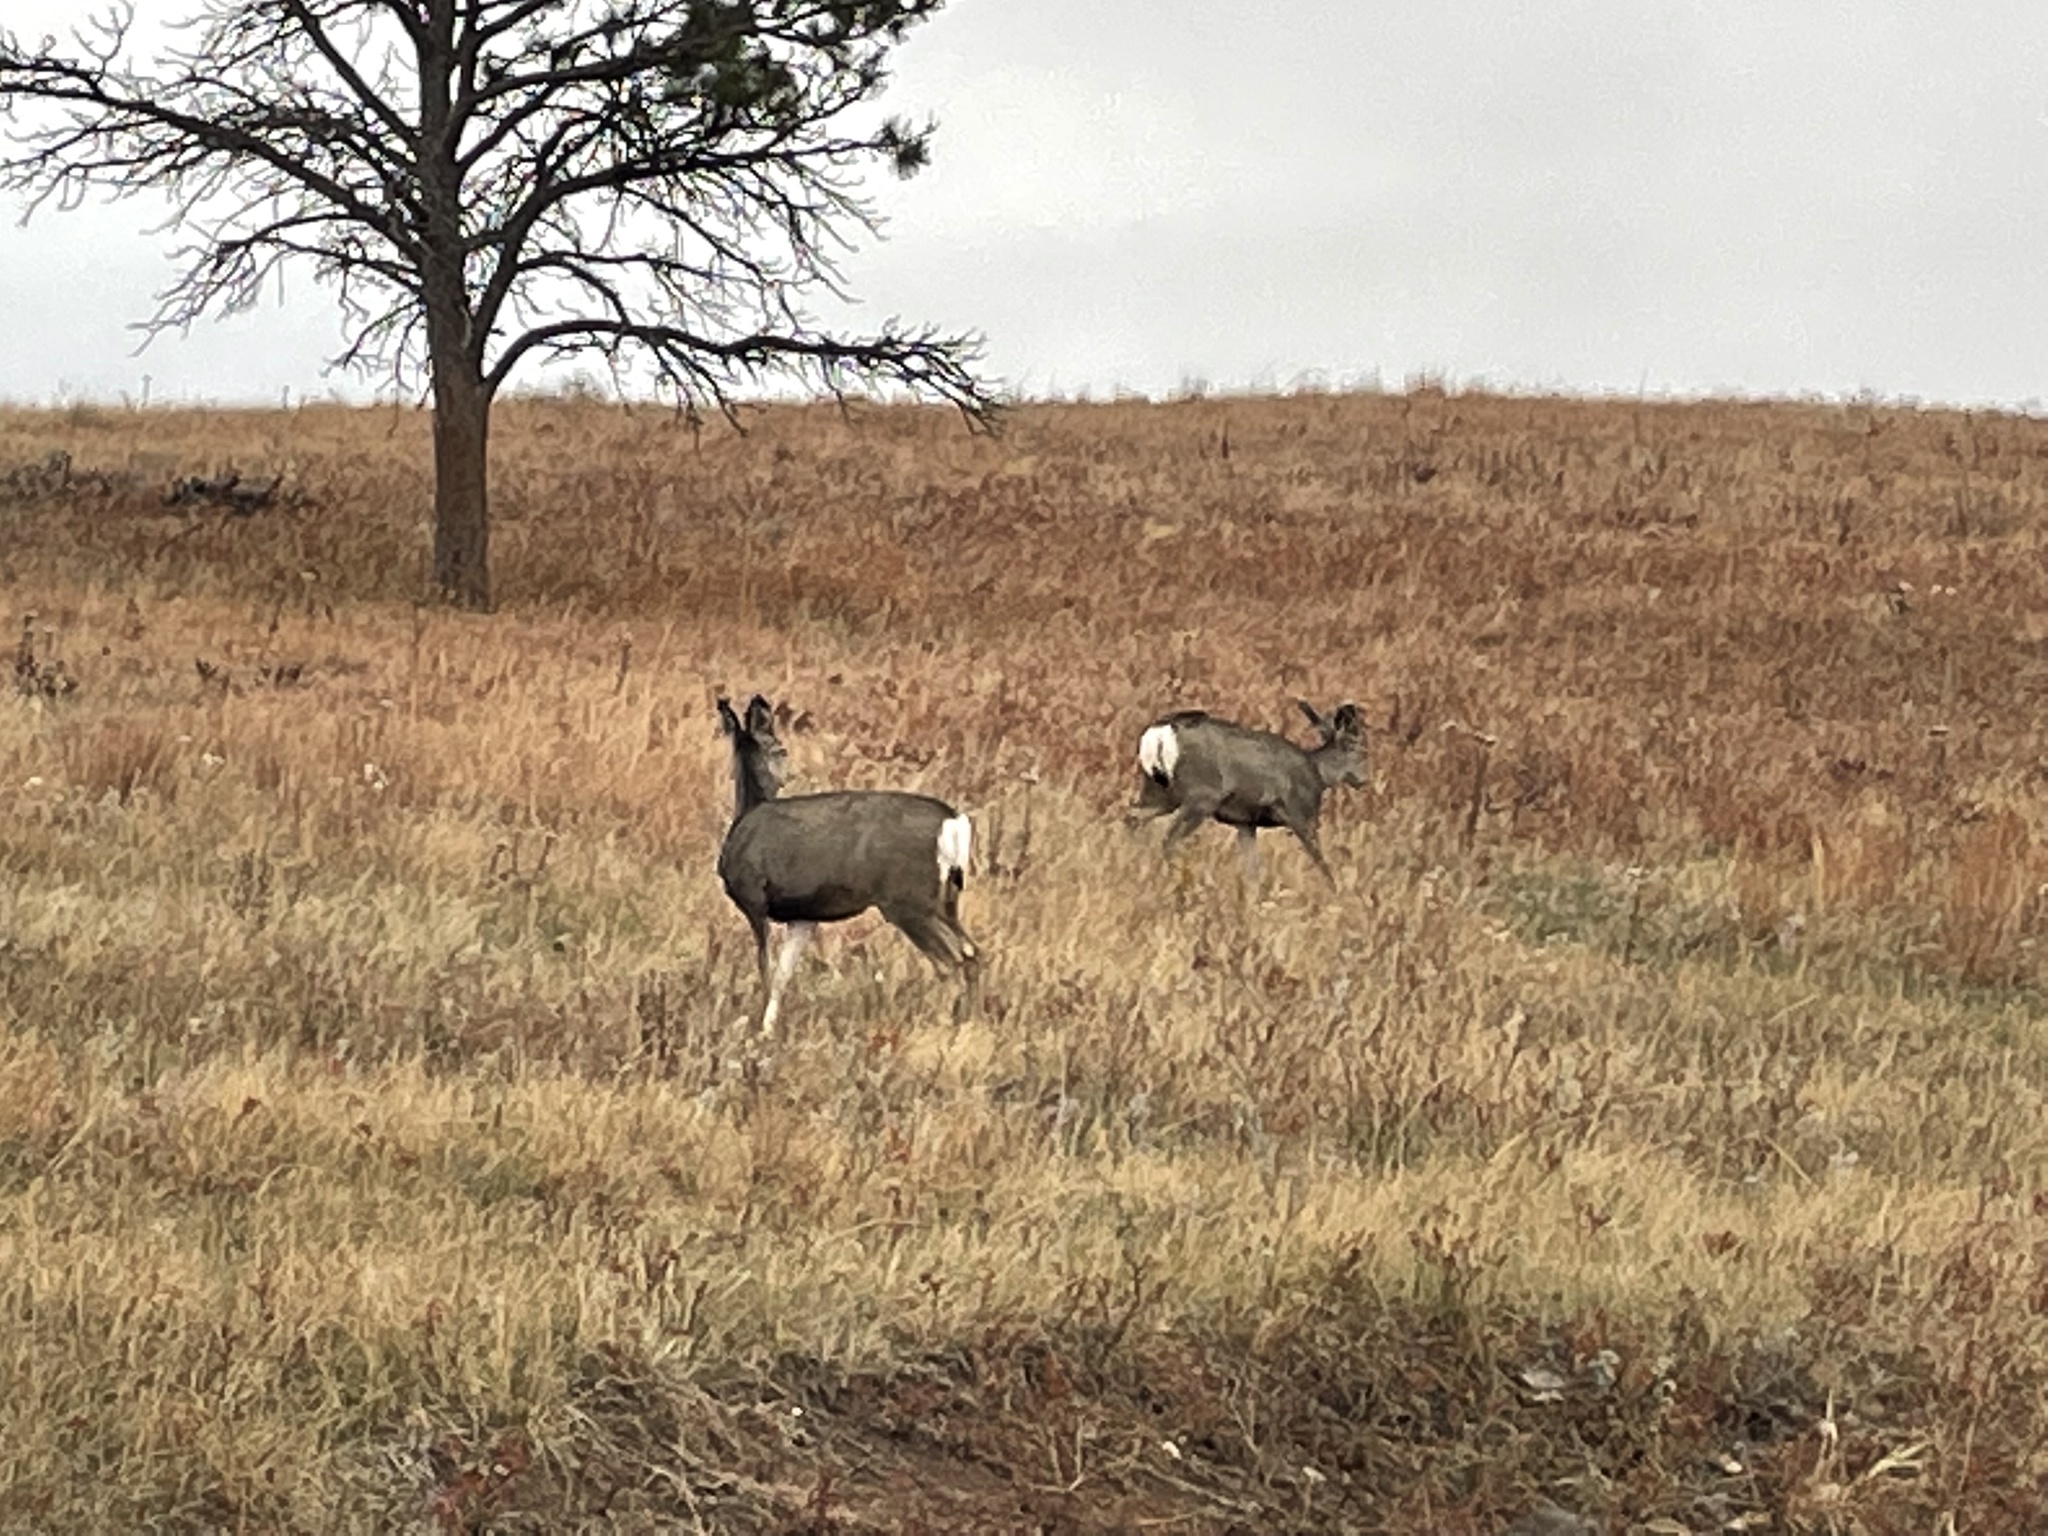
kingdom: Animalia
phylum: Chordata
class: Mammalia
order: Artiodactyla
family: Cervidae
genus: Odocoileus
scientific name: Odocoileus hemionus
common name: Mule deer
